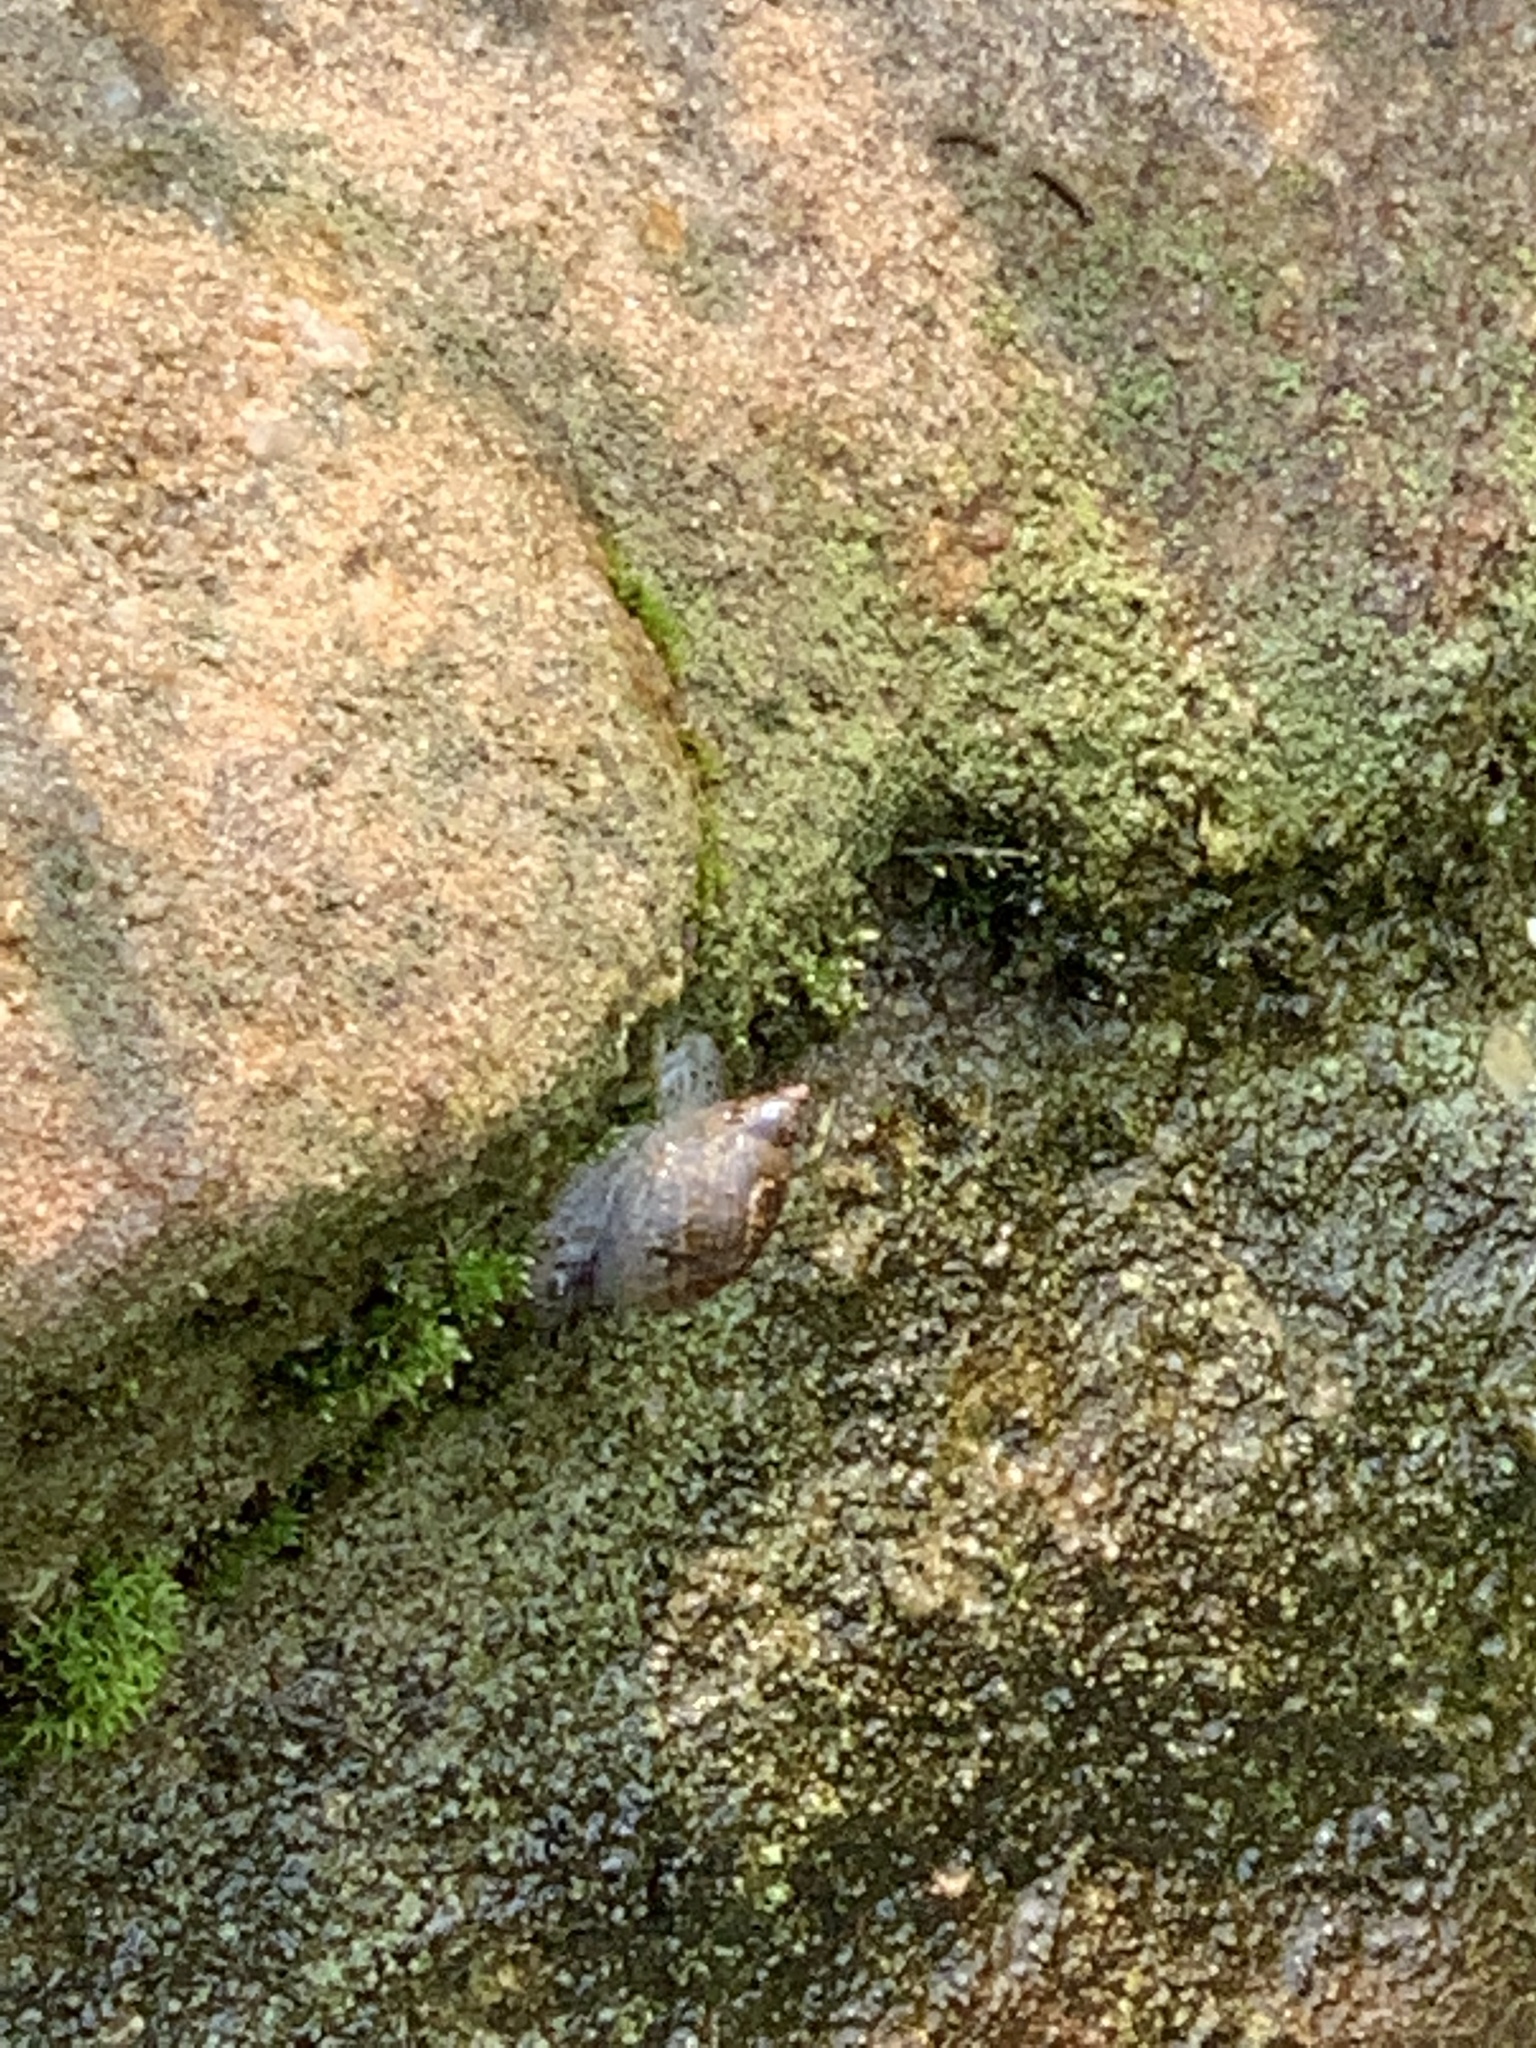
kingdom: Animalia
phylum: Mollusca
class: Gastropoda
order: Stylommatophora
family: Succineidae
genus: Succinea
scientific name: Succinea concordialis
